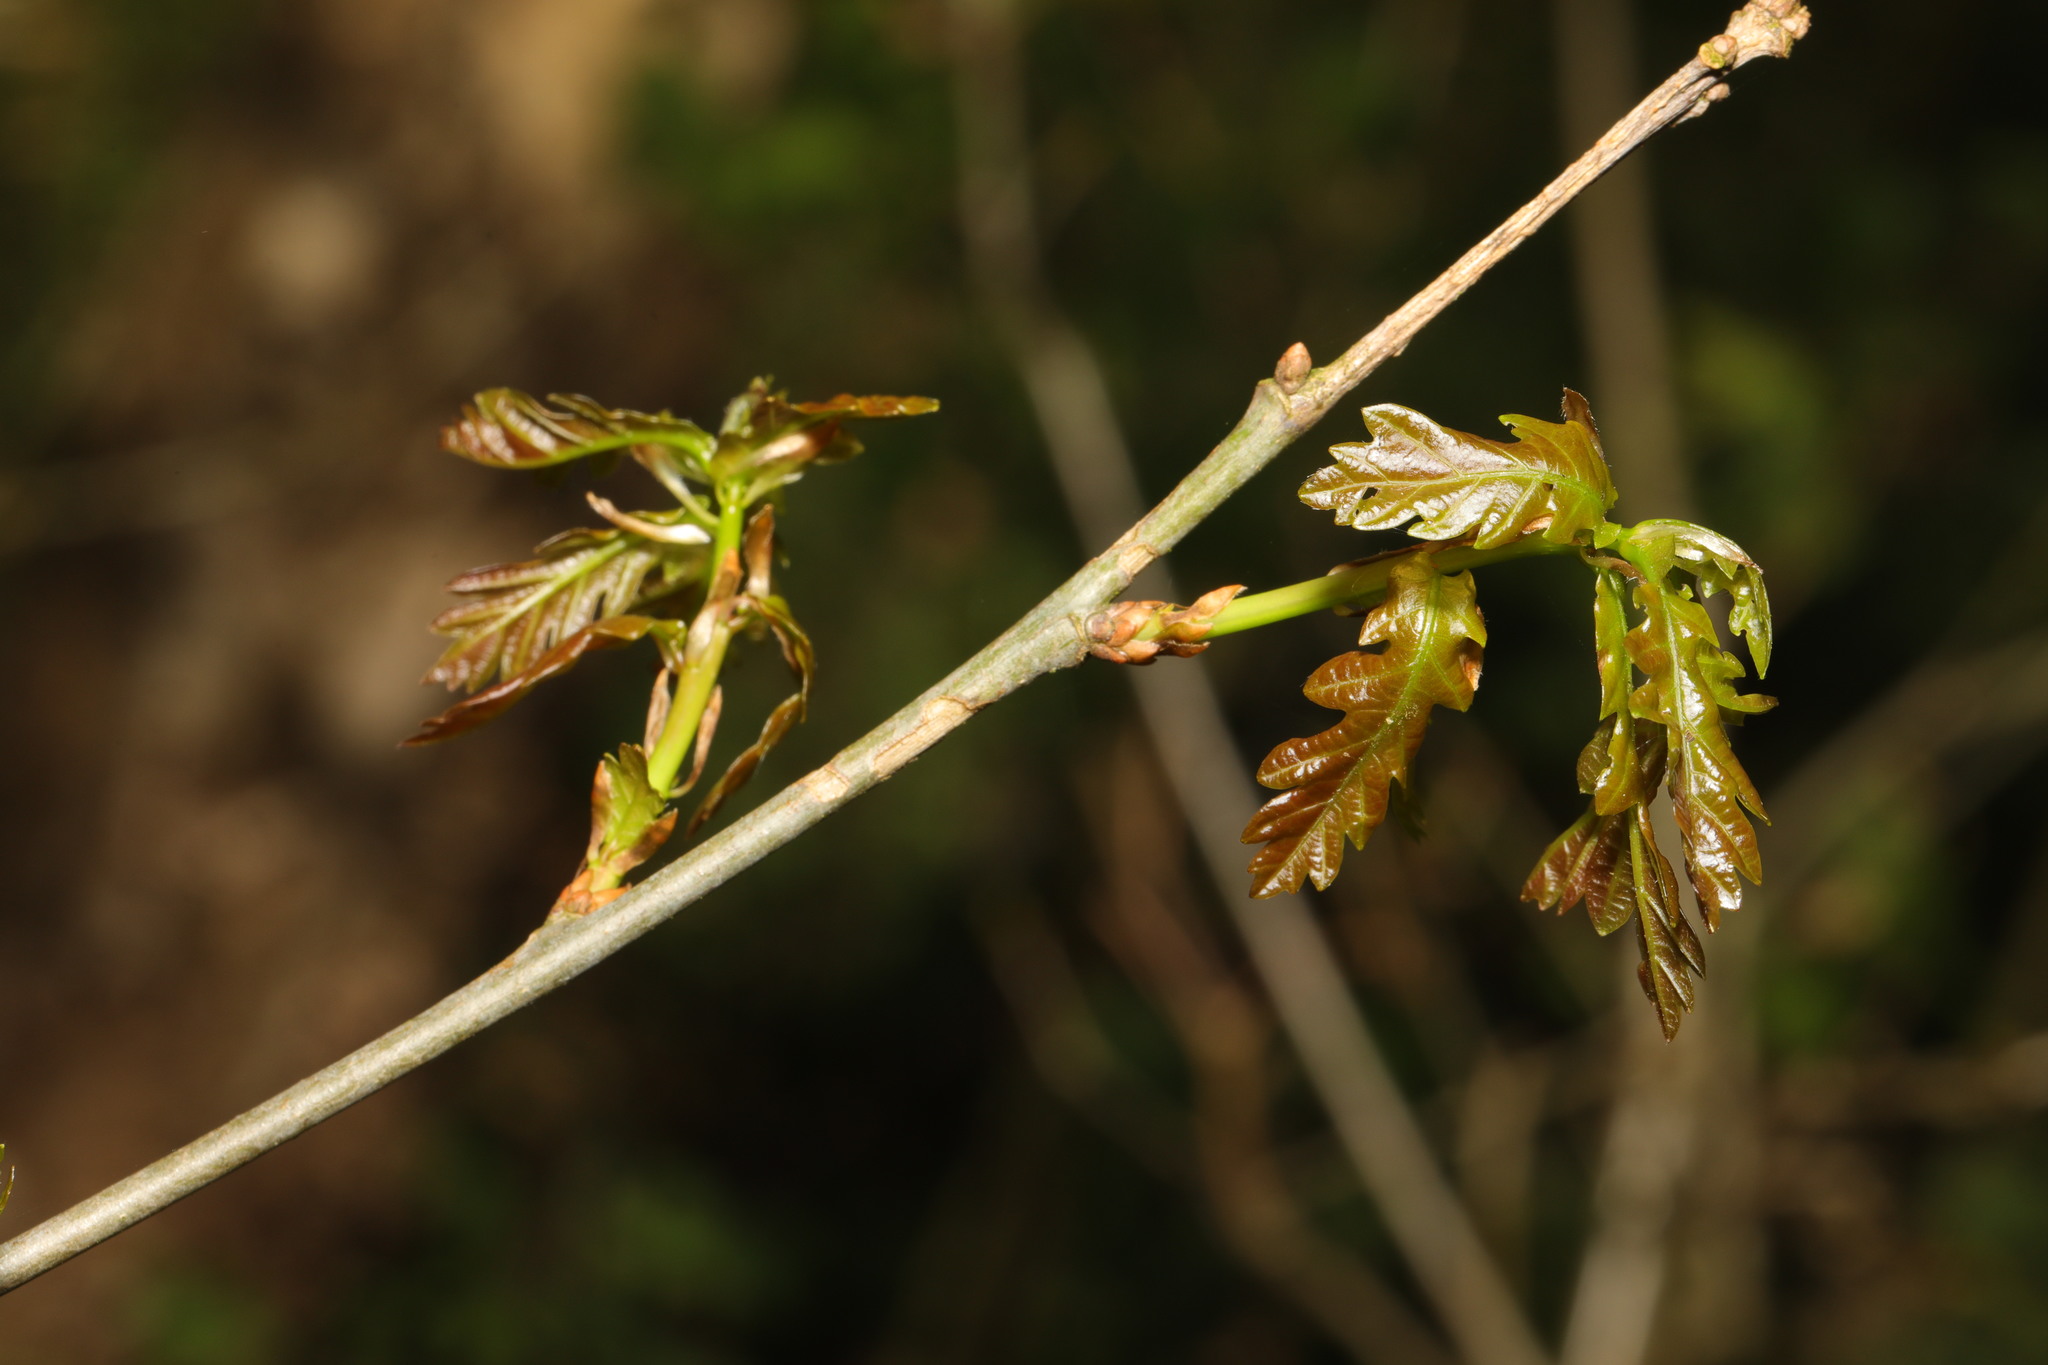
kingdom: Plantae
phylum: Tracheophyta
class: Magnoliopsida
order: Fagales
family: Fagaceae
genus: Quercus
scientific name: Quercus robur
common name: Pedunculate oak
